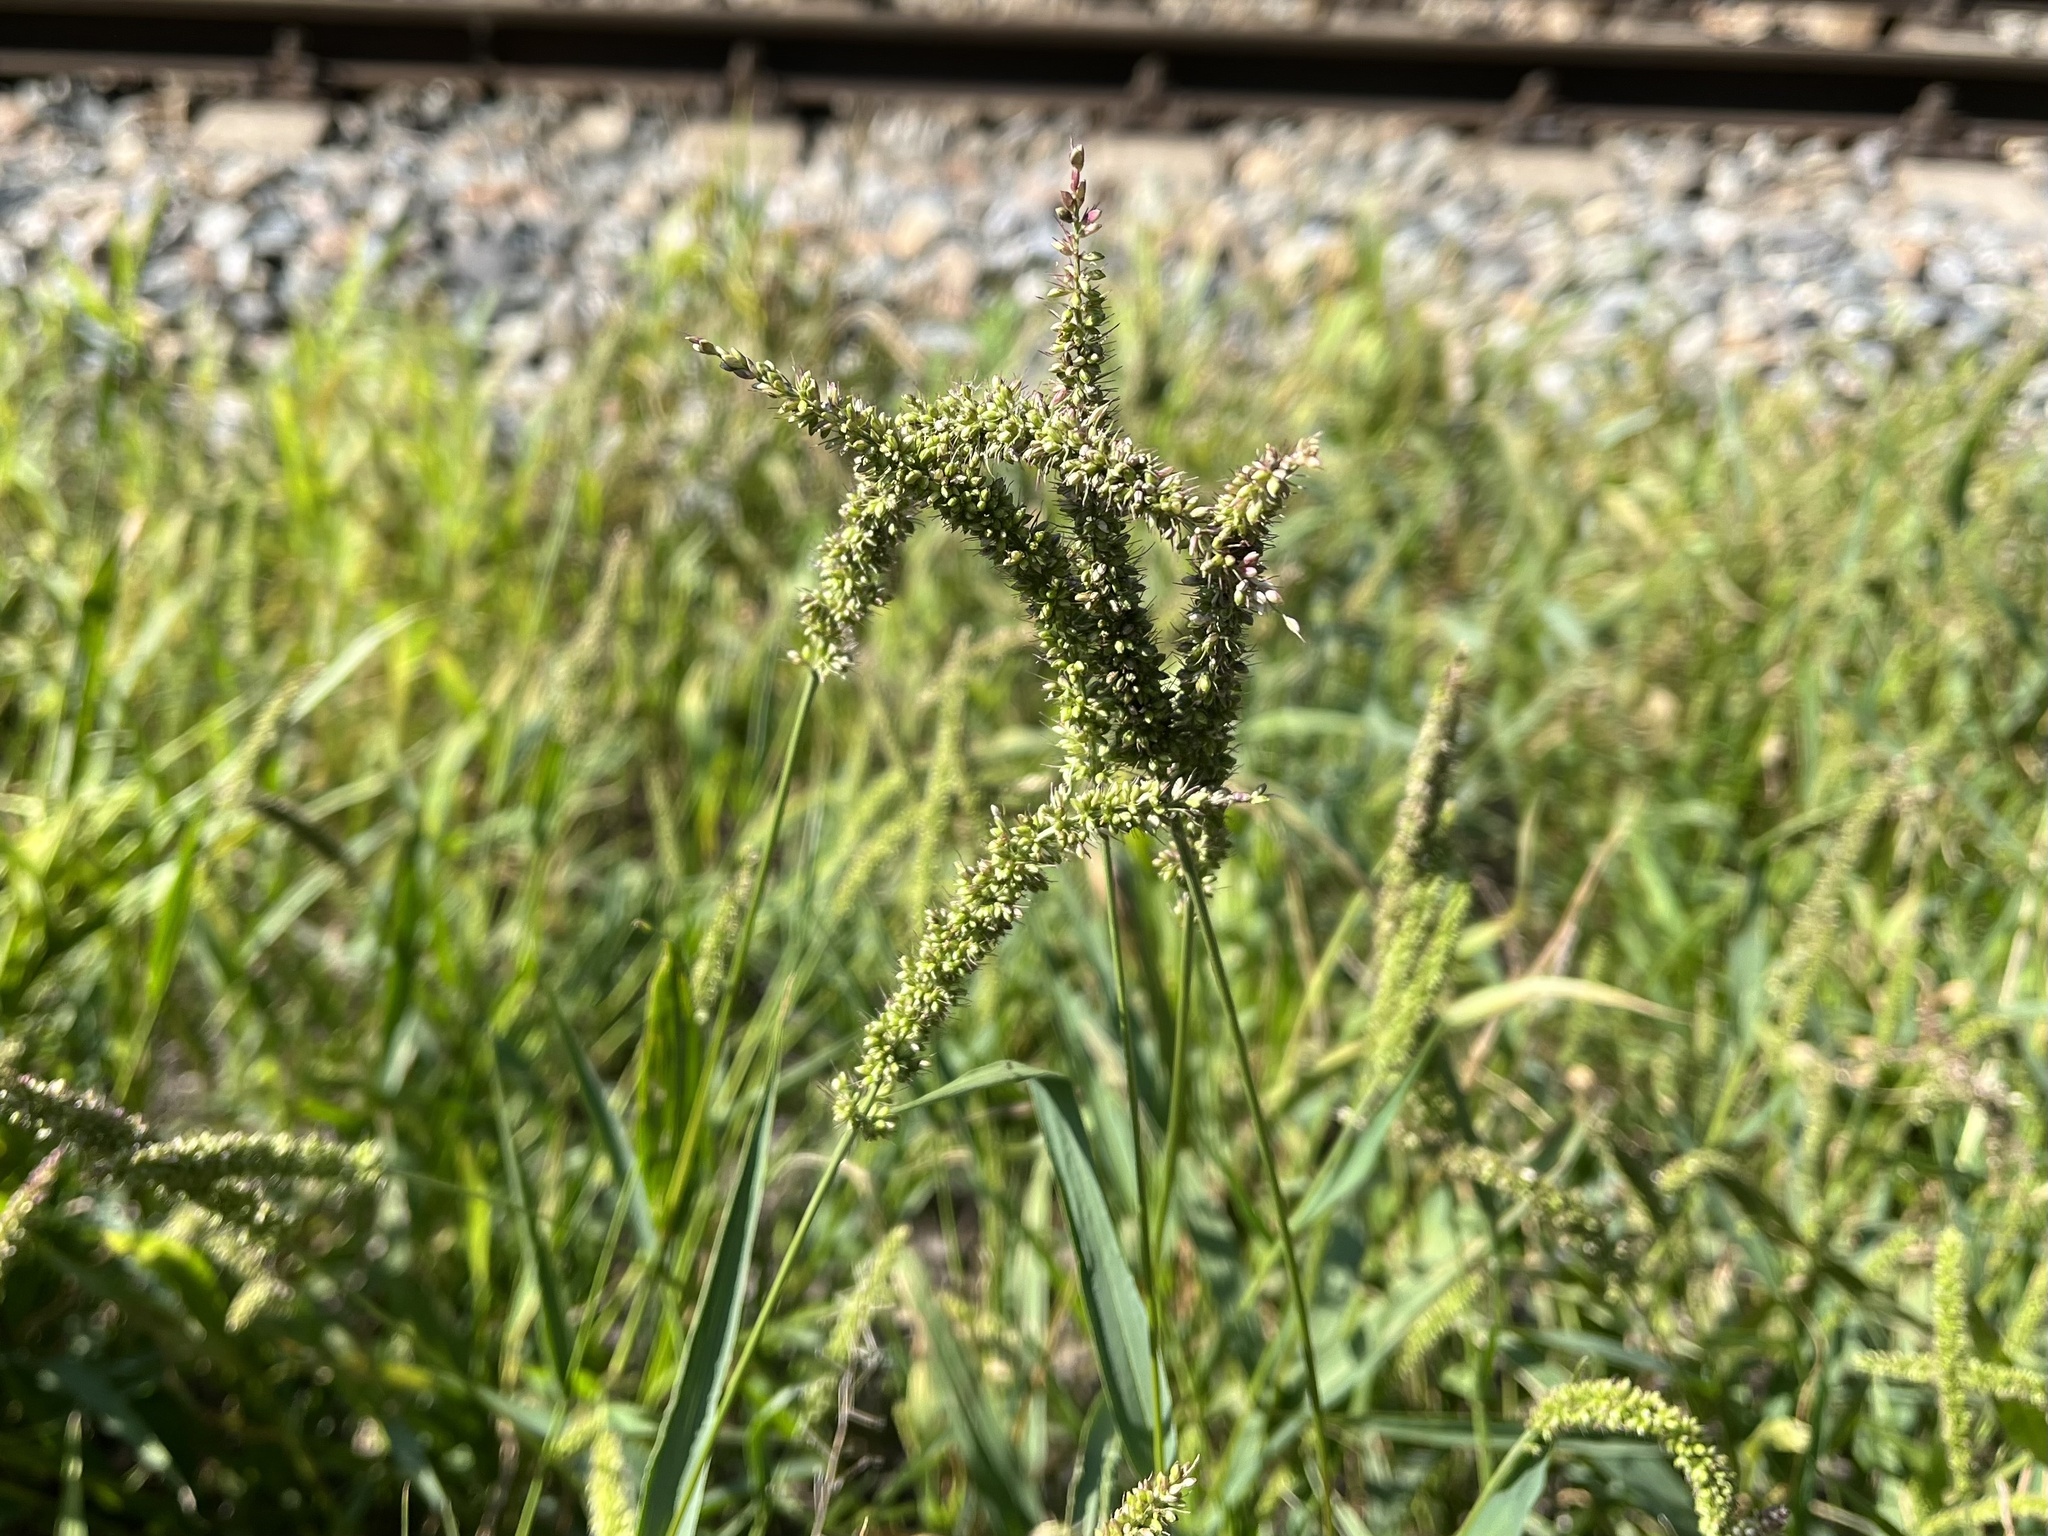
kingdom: Plantae
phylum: Tracheophyta
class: Liliopsida
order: Poales
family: Poaceae
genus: Setaria
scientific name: Setaria verticillata
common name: Hooked bristlegrass
